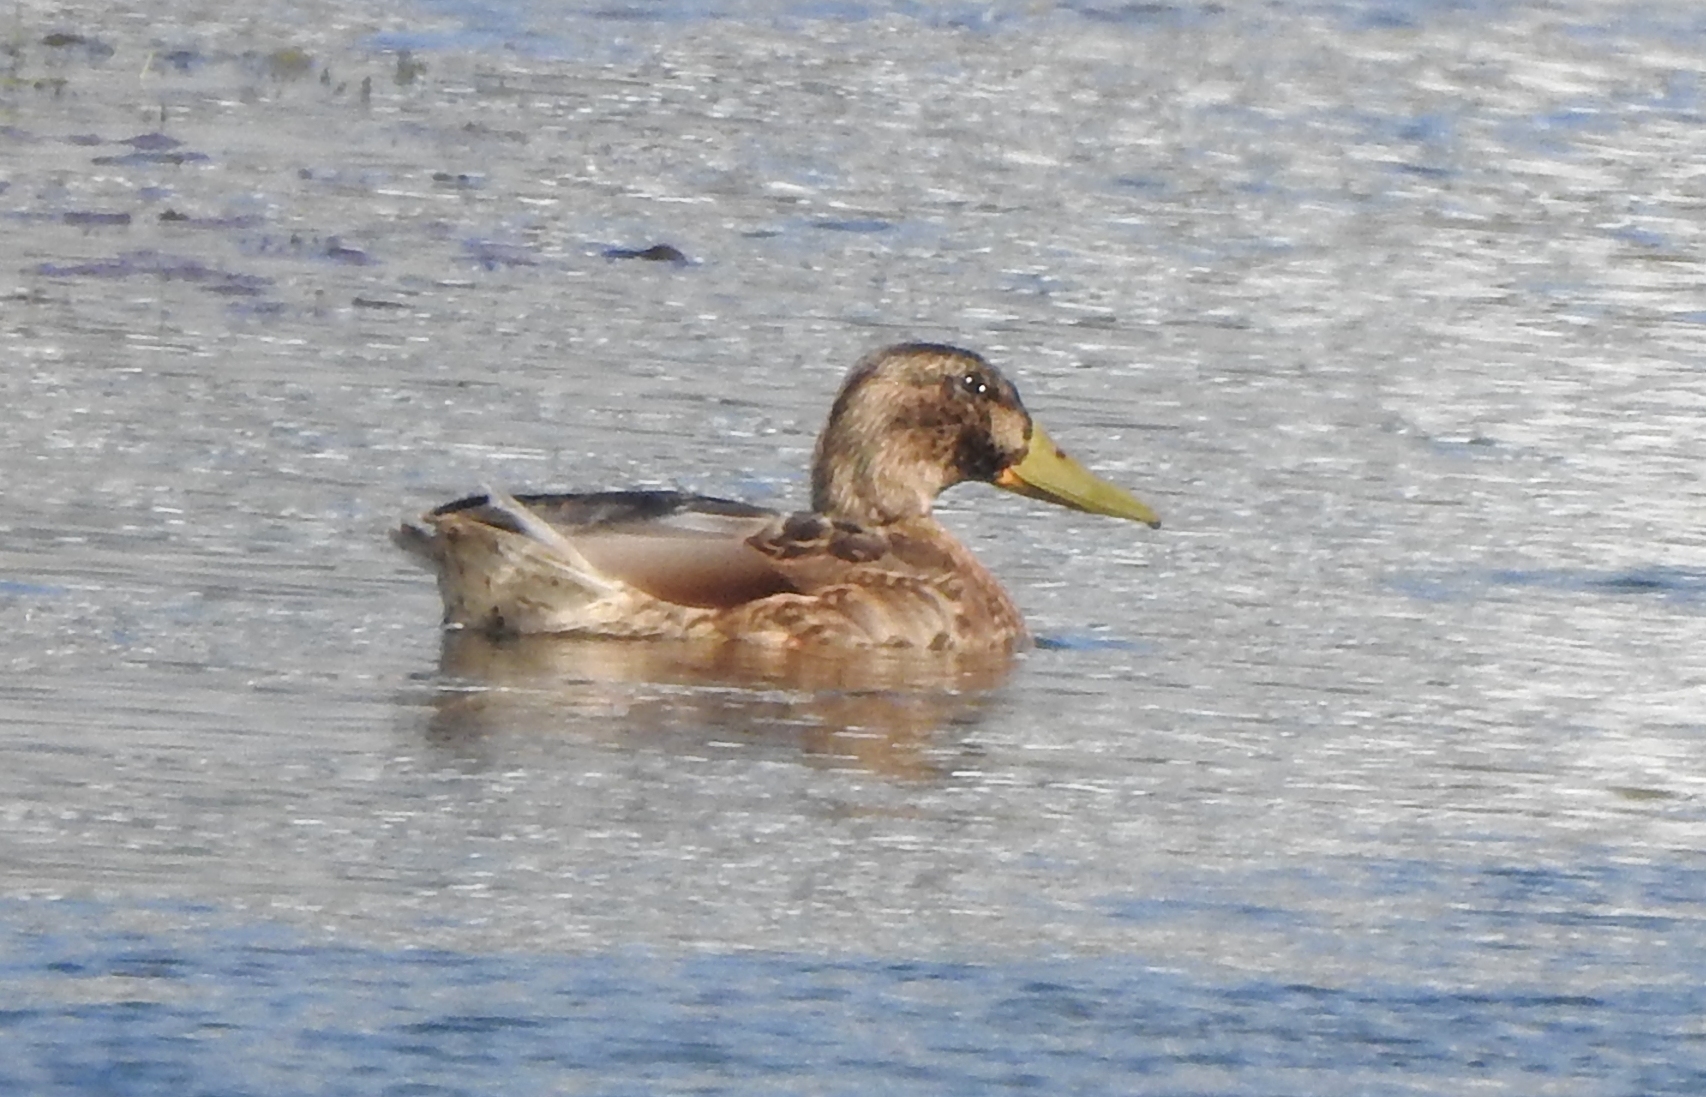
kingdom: Animalia
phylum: Chordata
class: Aves
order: Anseriformes
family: Anatidae
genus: Anas
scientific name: Anas platyrhynchos
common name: Mallard
